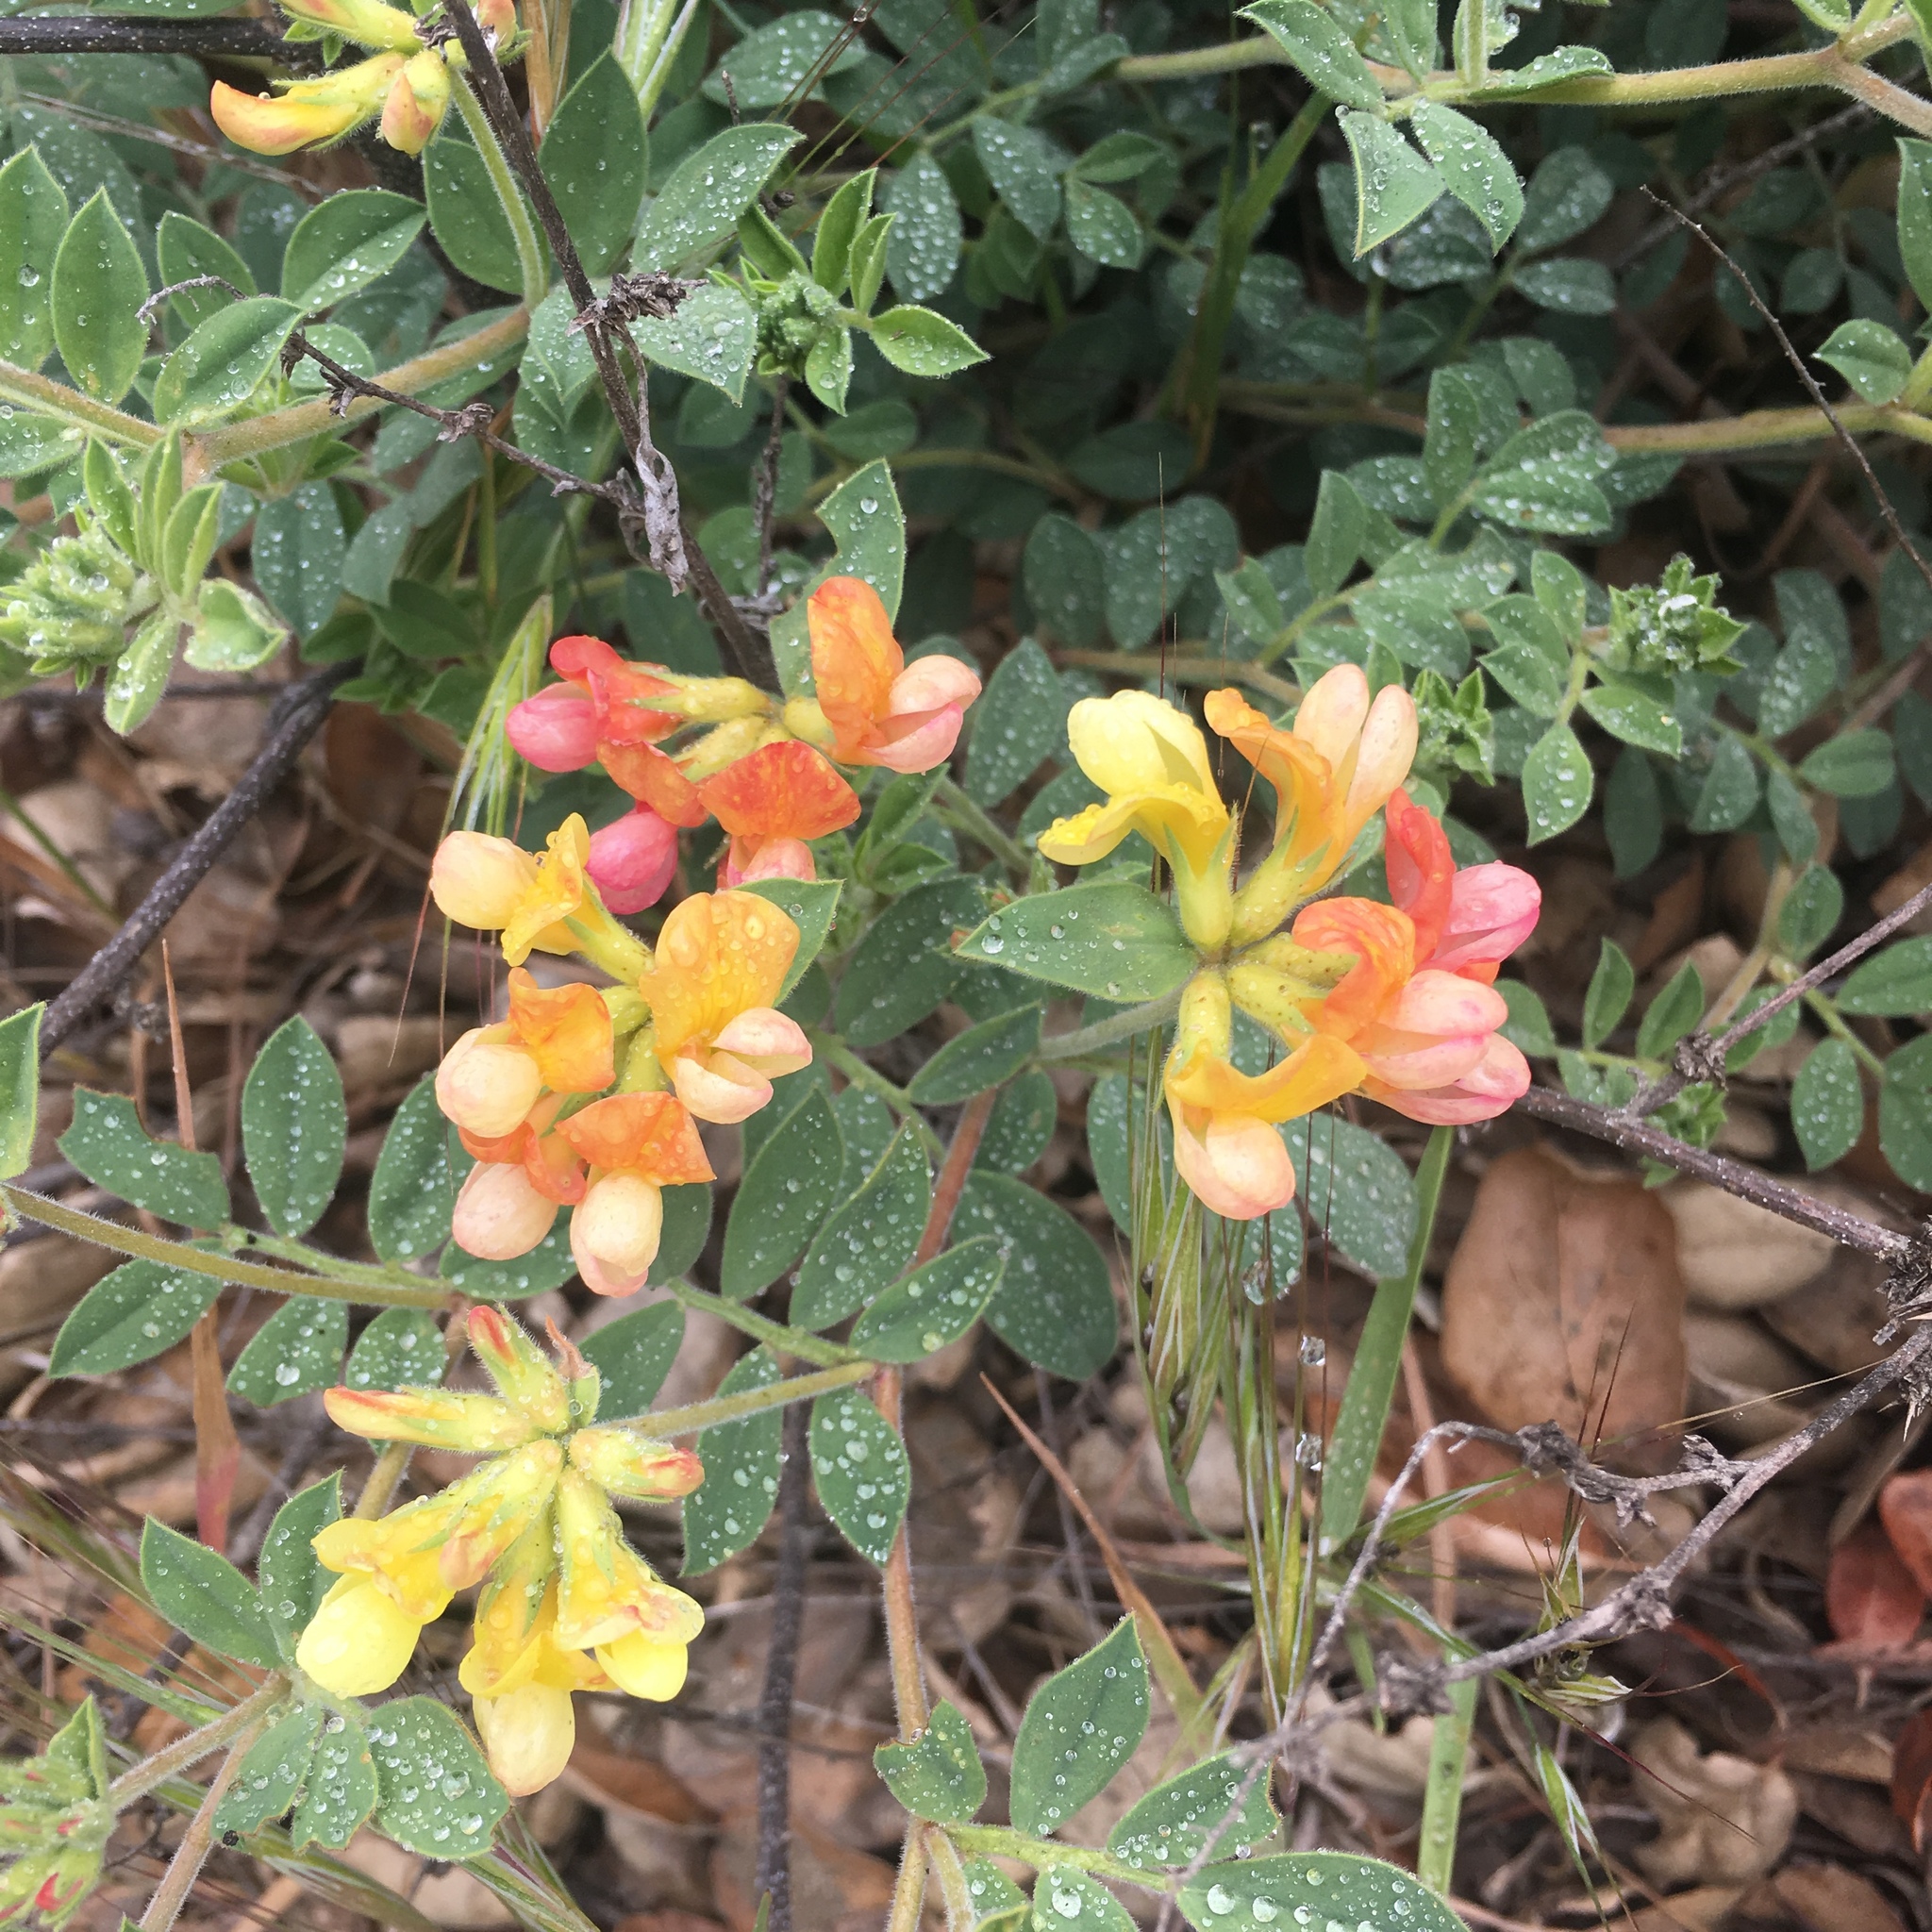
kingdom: Plantae
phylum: Tracheophyta
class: Magnoliopsida
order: Fabales
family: Fabaceae
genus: Acmispon
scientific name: Acmispon grandiflorus
